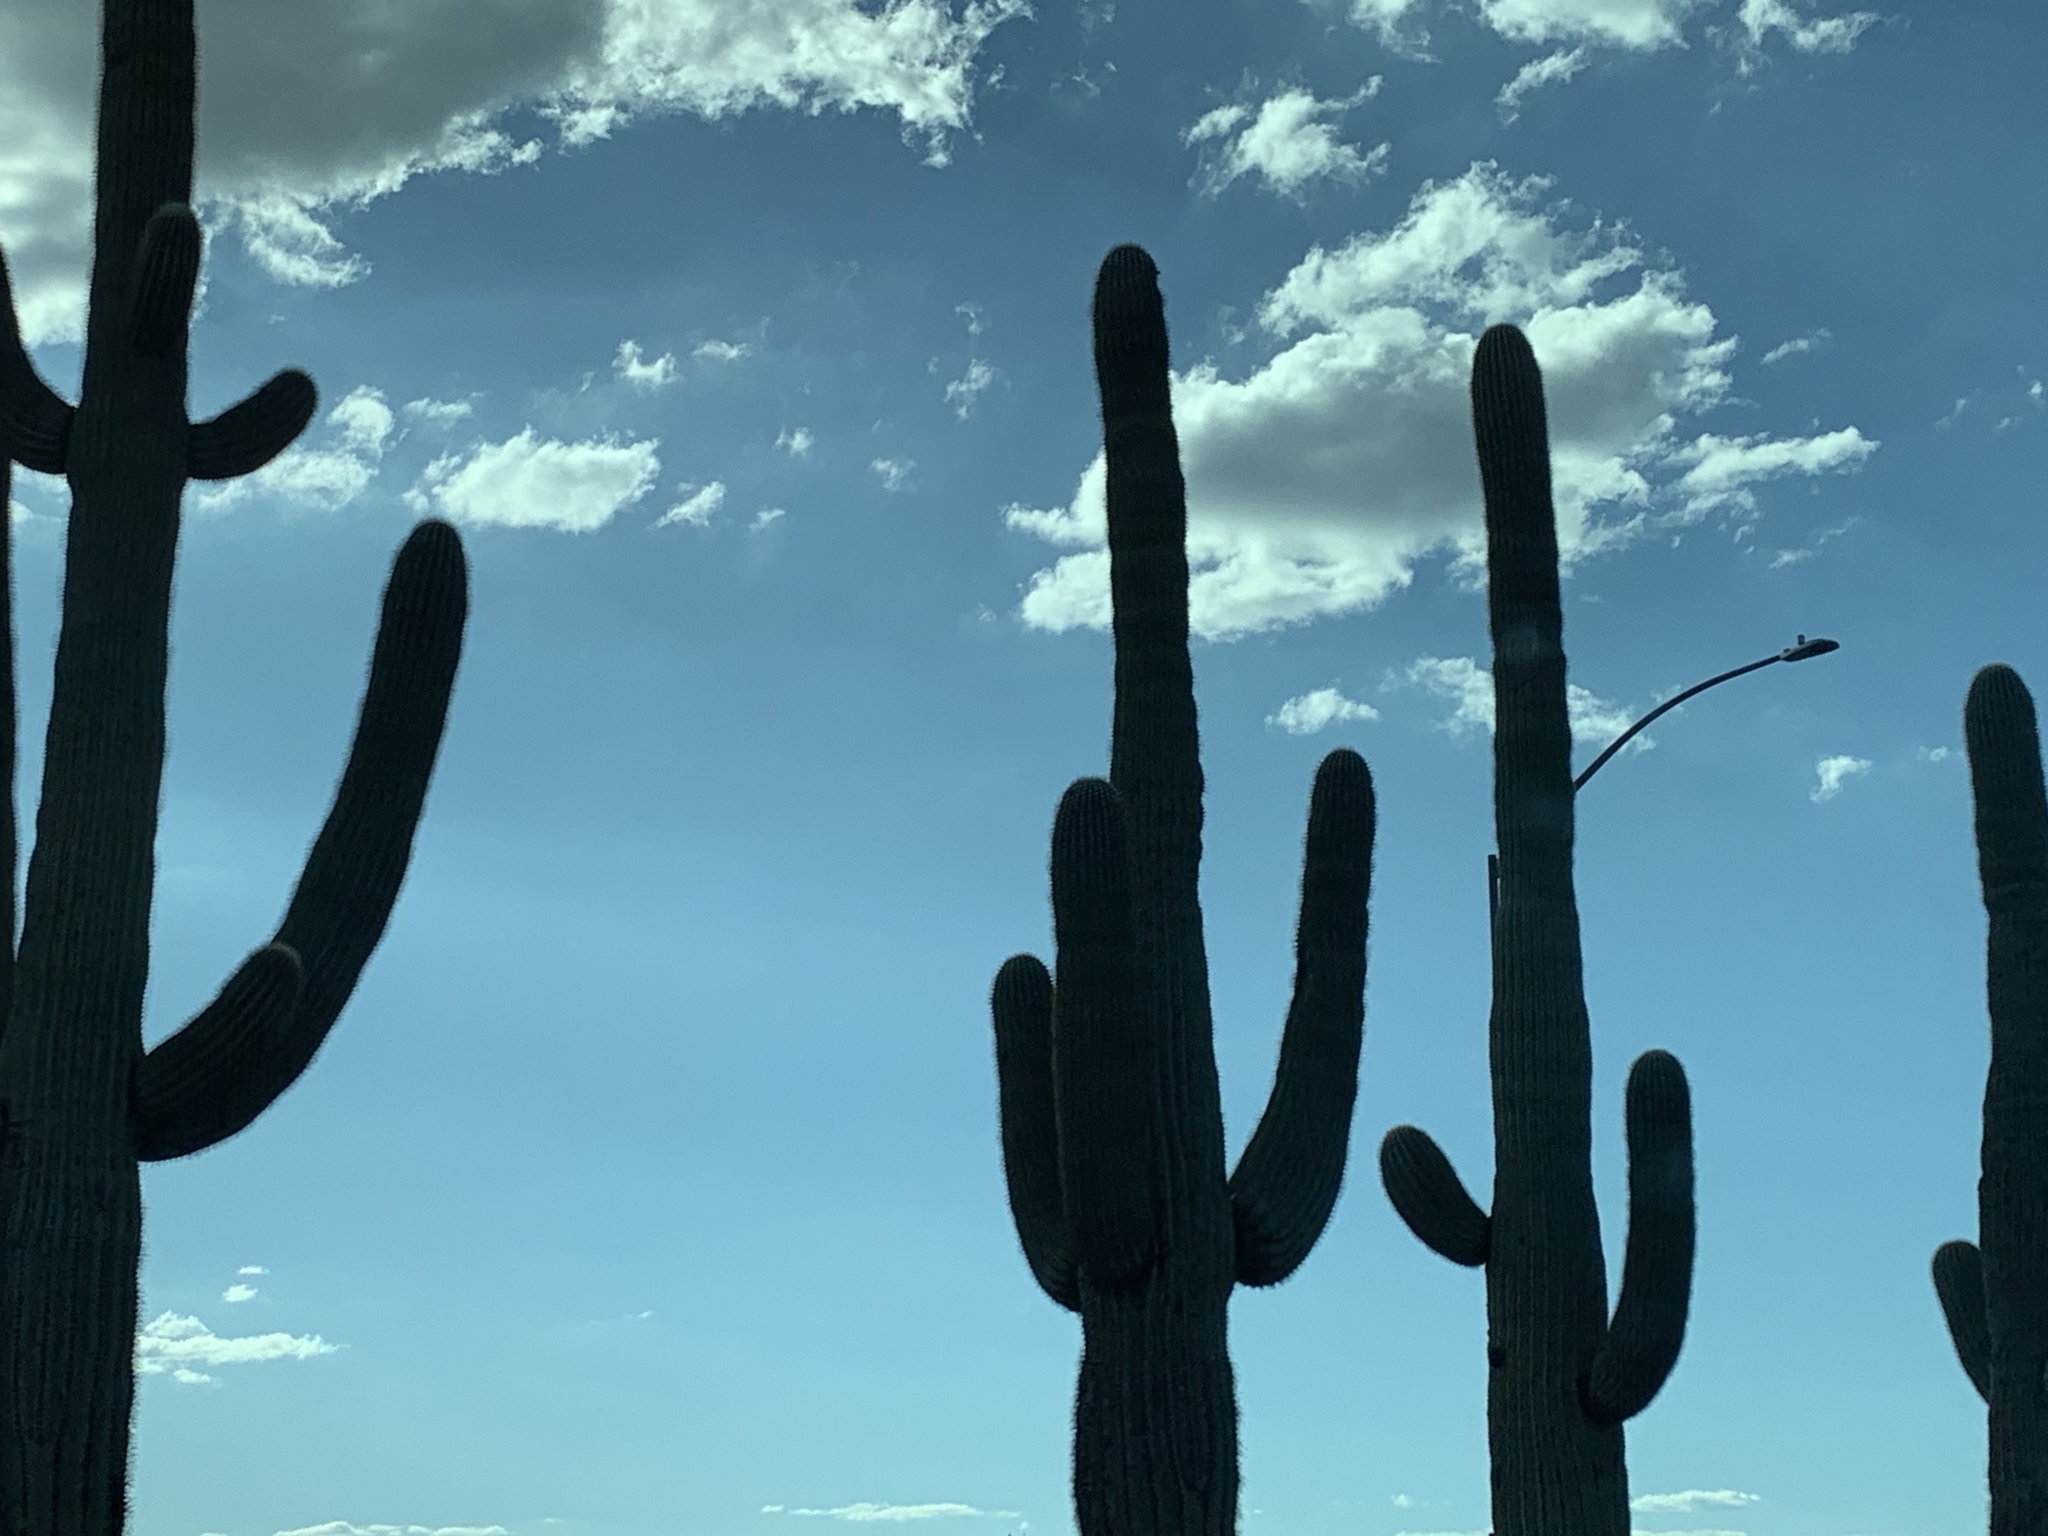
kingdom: Plantae
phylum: Tracheophyta
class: Magnoliopsida
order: Caryophyllales
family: Cactaceae
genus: Carnegiea
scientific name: Carnegiea gigantea
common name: Saguaro
